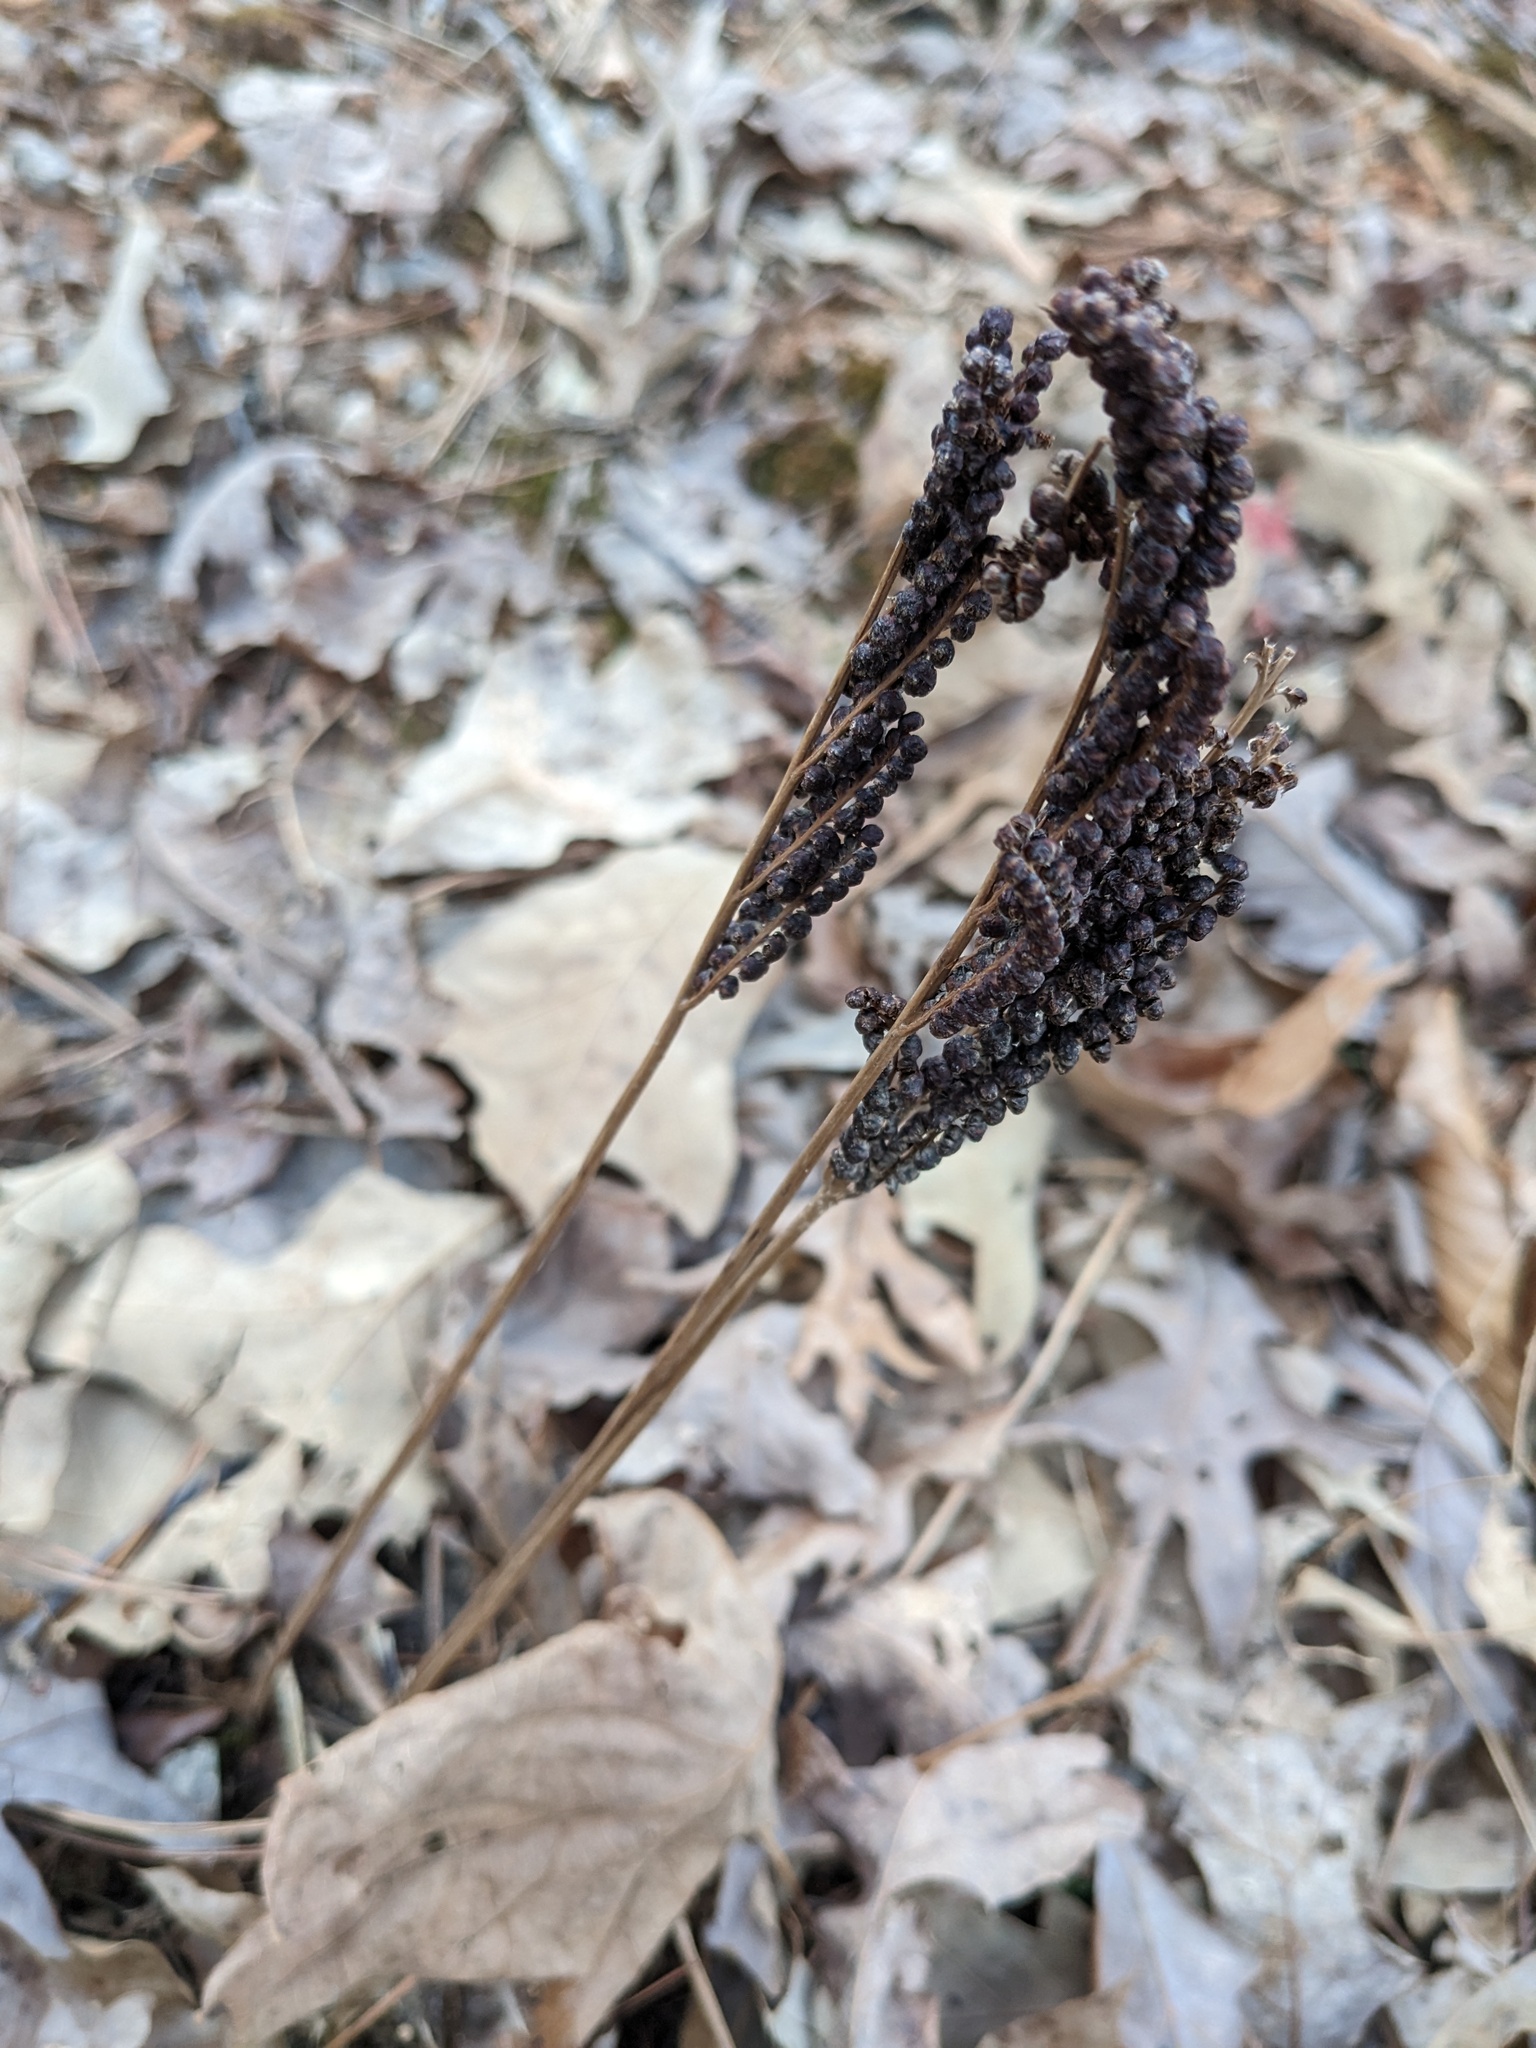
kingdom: Plantae
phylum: Tracheophyta
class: Polypodiopsida
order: Polypodiales
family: Onocleaceae
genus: Onoclea
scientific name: Onoclea sensibilis
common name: Sensitive fern
